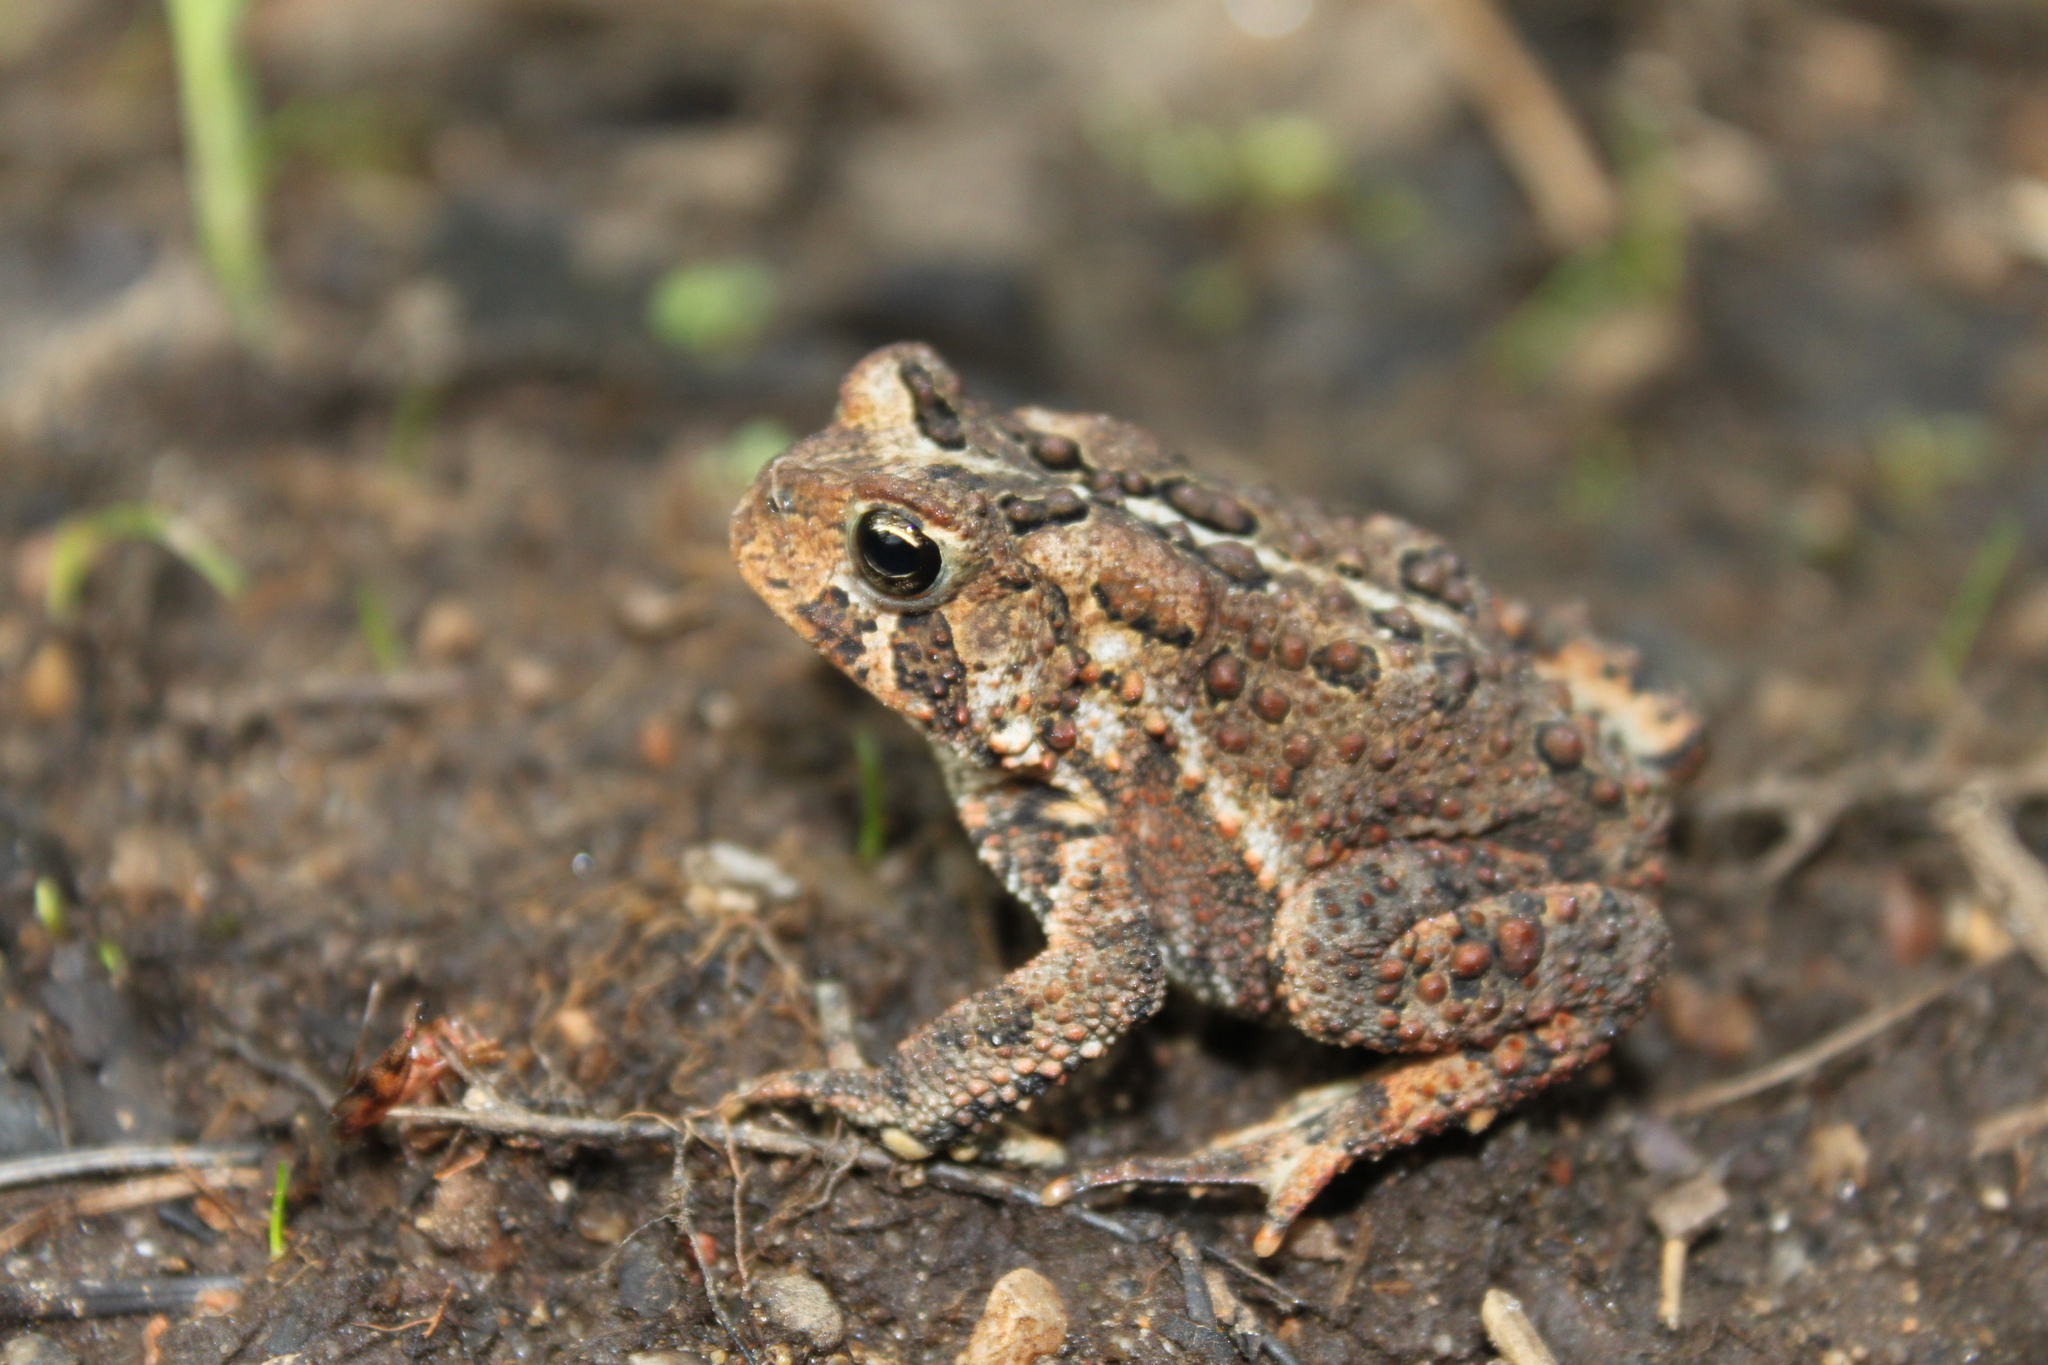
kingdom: Animalia
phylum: Chordata
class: Amphibia
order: Anura
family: Bufonidae
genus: Anaxyrus
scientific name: Anaxyrus americanus
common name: American toad
